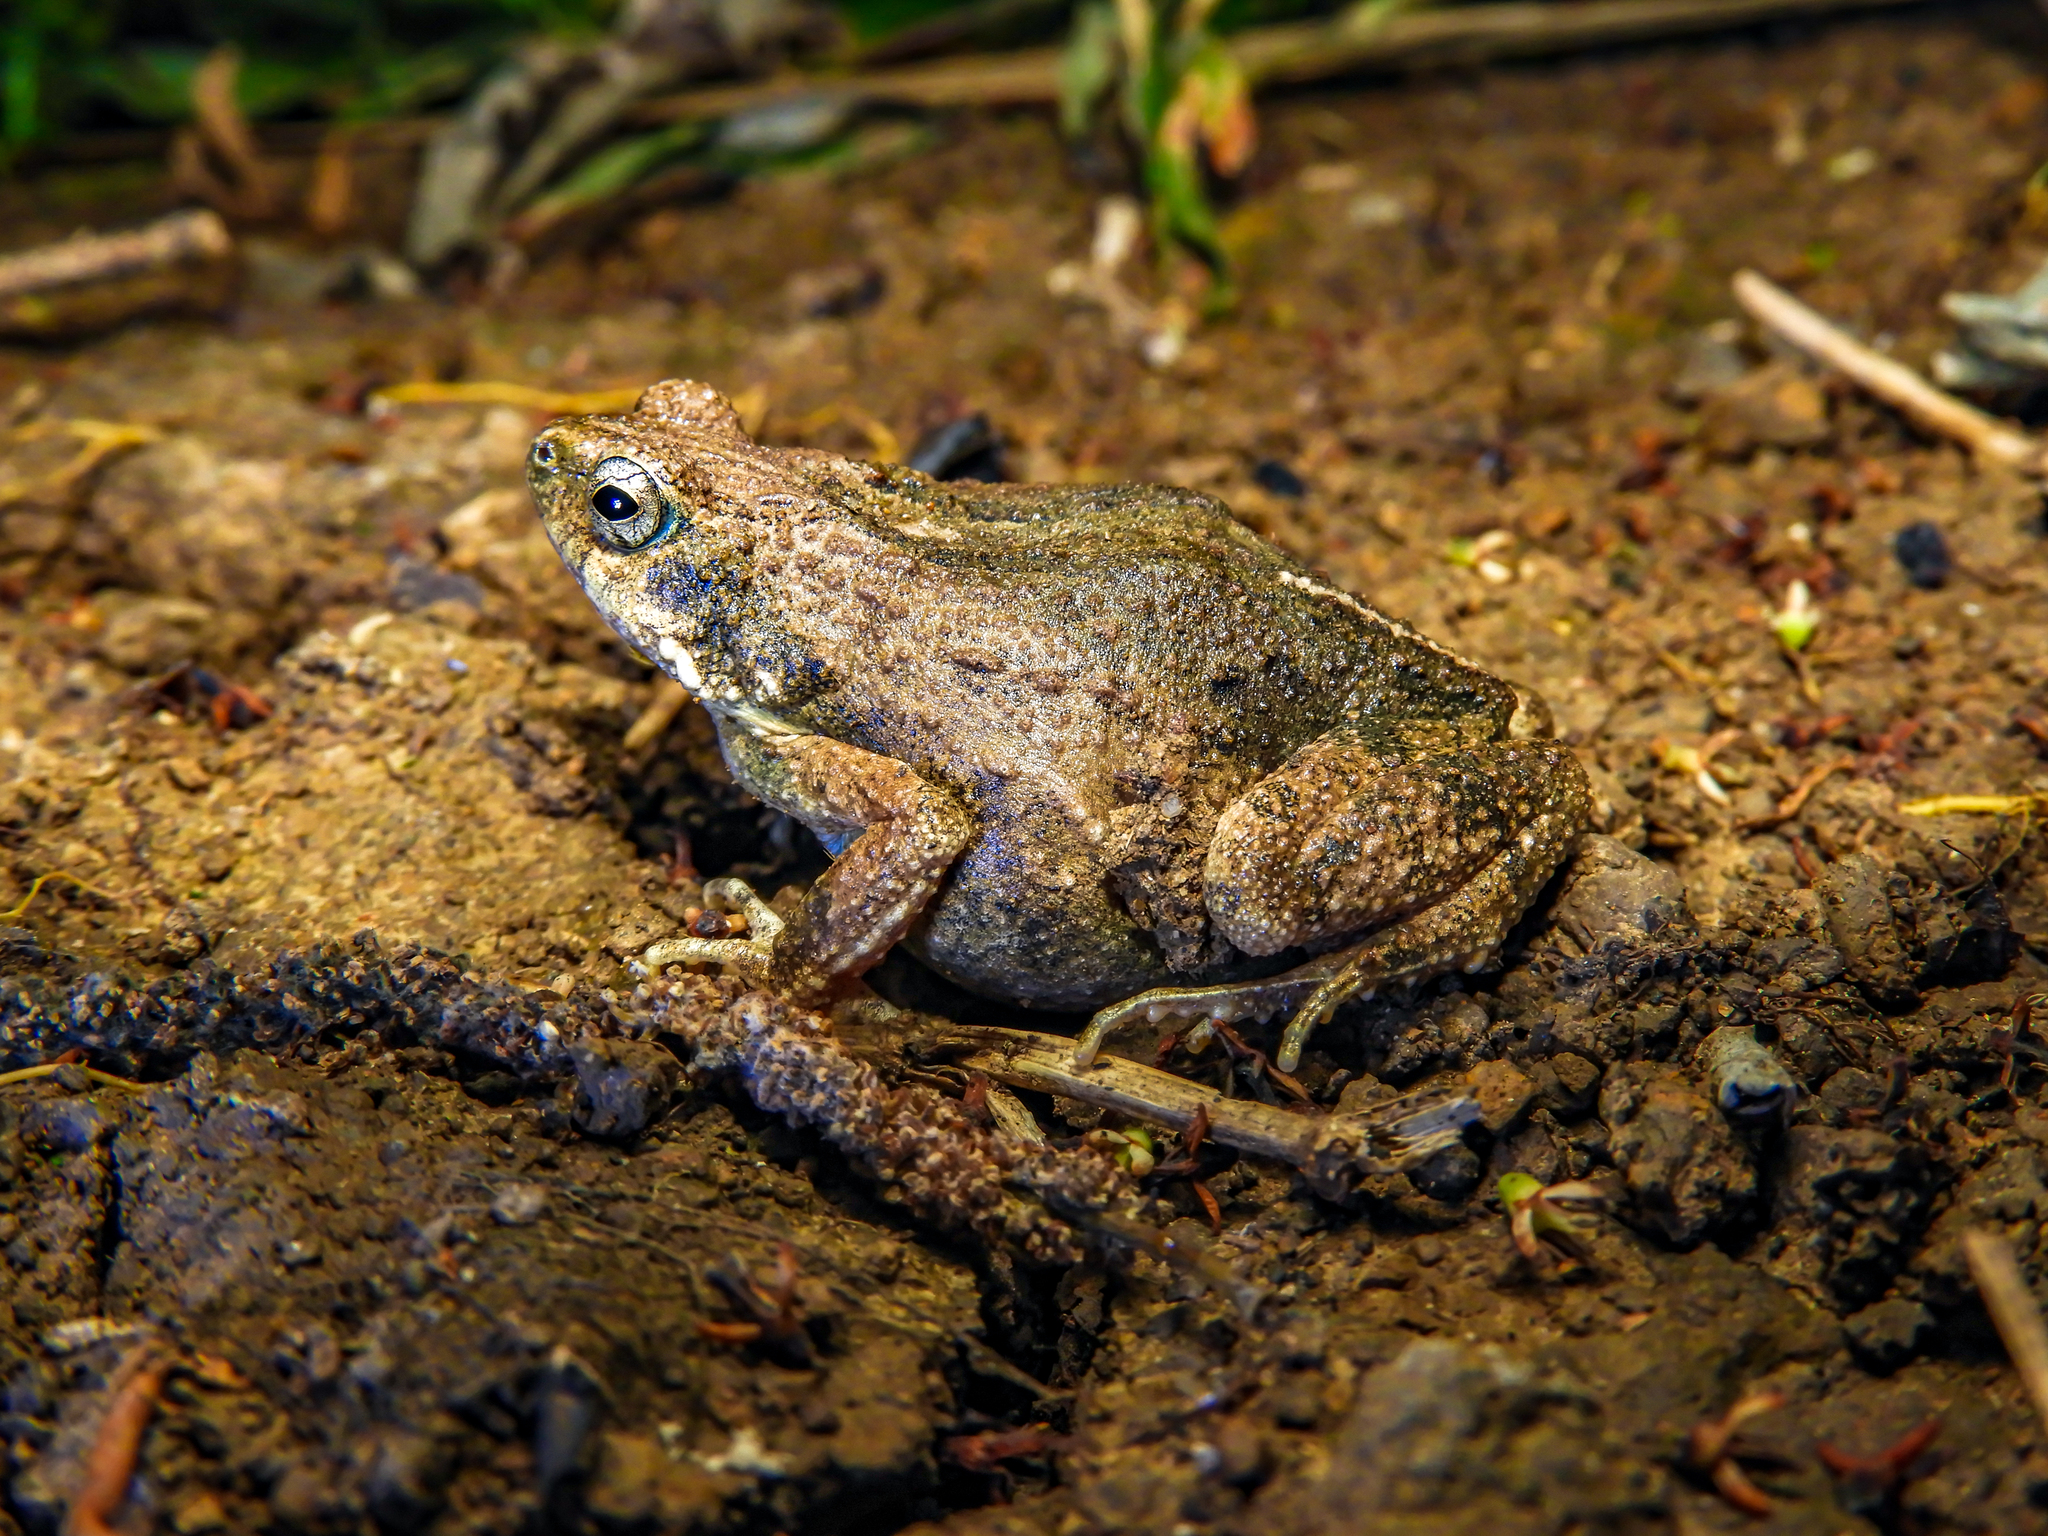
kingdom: Animalia
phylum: Chordata
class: Amphibia
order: Anura
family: Leptodactylidae
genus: Engystomops
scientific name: Engystomops pustulosus
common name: Tungara frog
